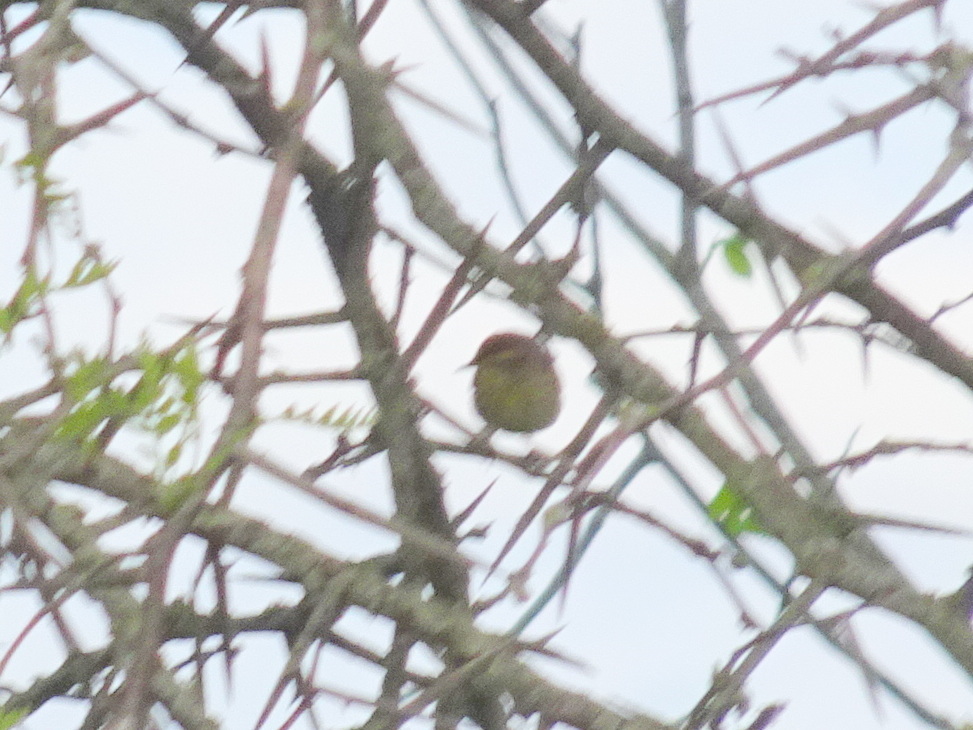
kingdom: Animalia
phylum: Chordata
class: Aves
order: Passeriformes
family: Parulidae
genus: Setophaga
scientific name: Setophaga palmarum
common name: Palm warbler
